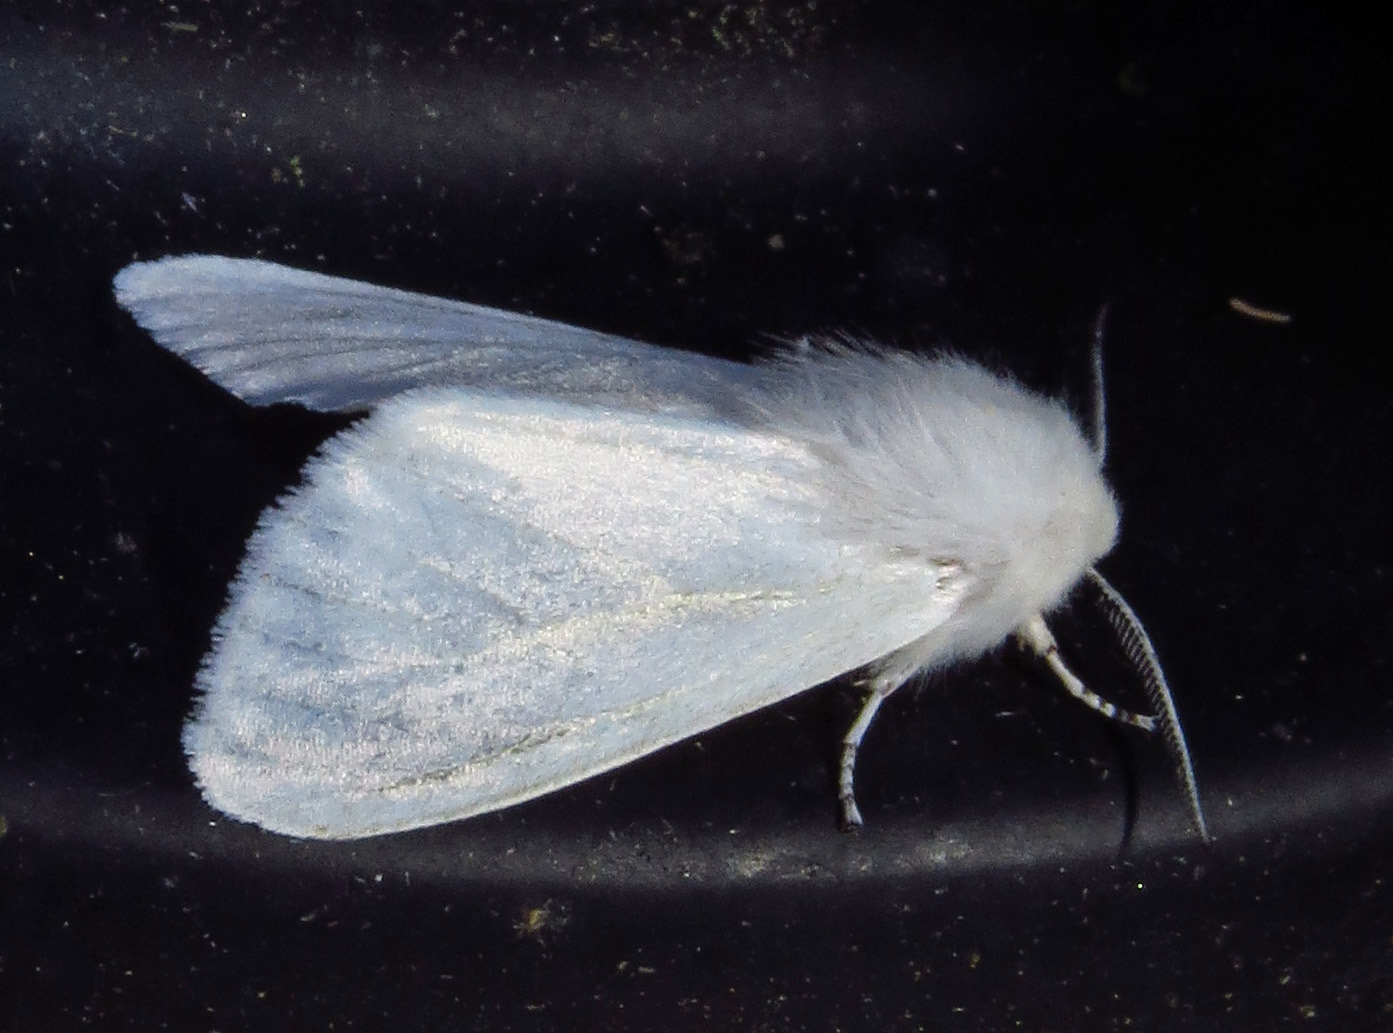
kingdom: Animalia
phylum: Arthropoda
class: Insecta
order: Lepidoptera
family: Erebidae
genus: Hyphantria
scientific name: Hyphantria cunea
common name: American white moth
